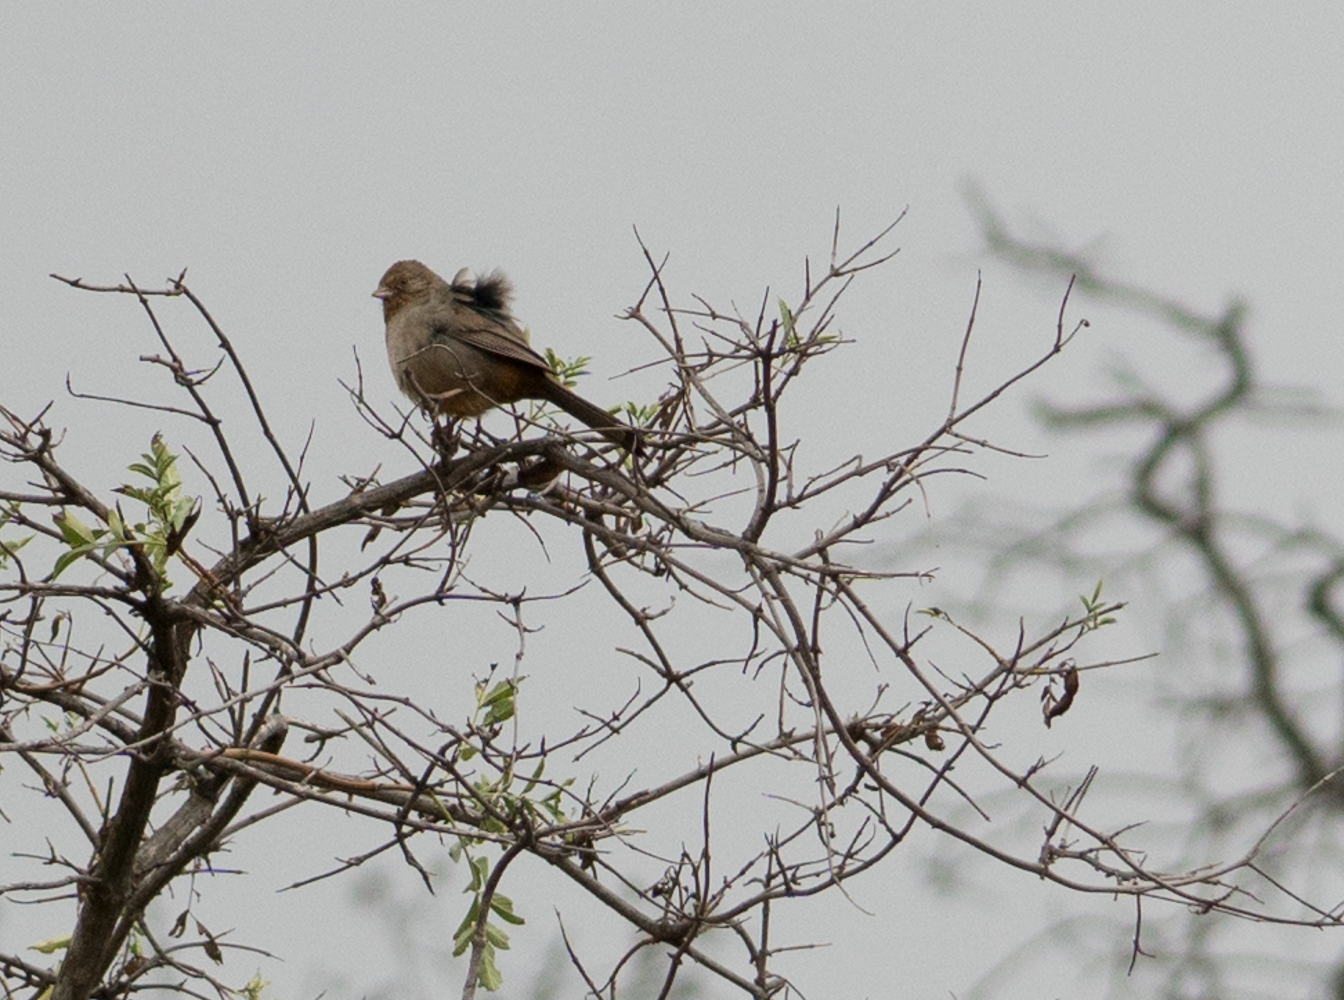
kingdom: Animalia
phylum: Chordata
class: Aves
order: Passeriformes
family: Passerellidae
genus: Melozone
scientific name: Melozone crissalis
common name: California towhee
